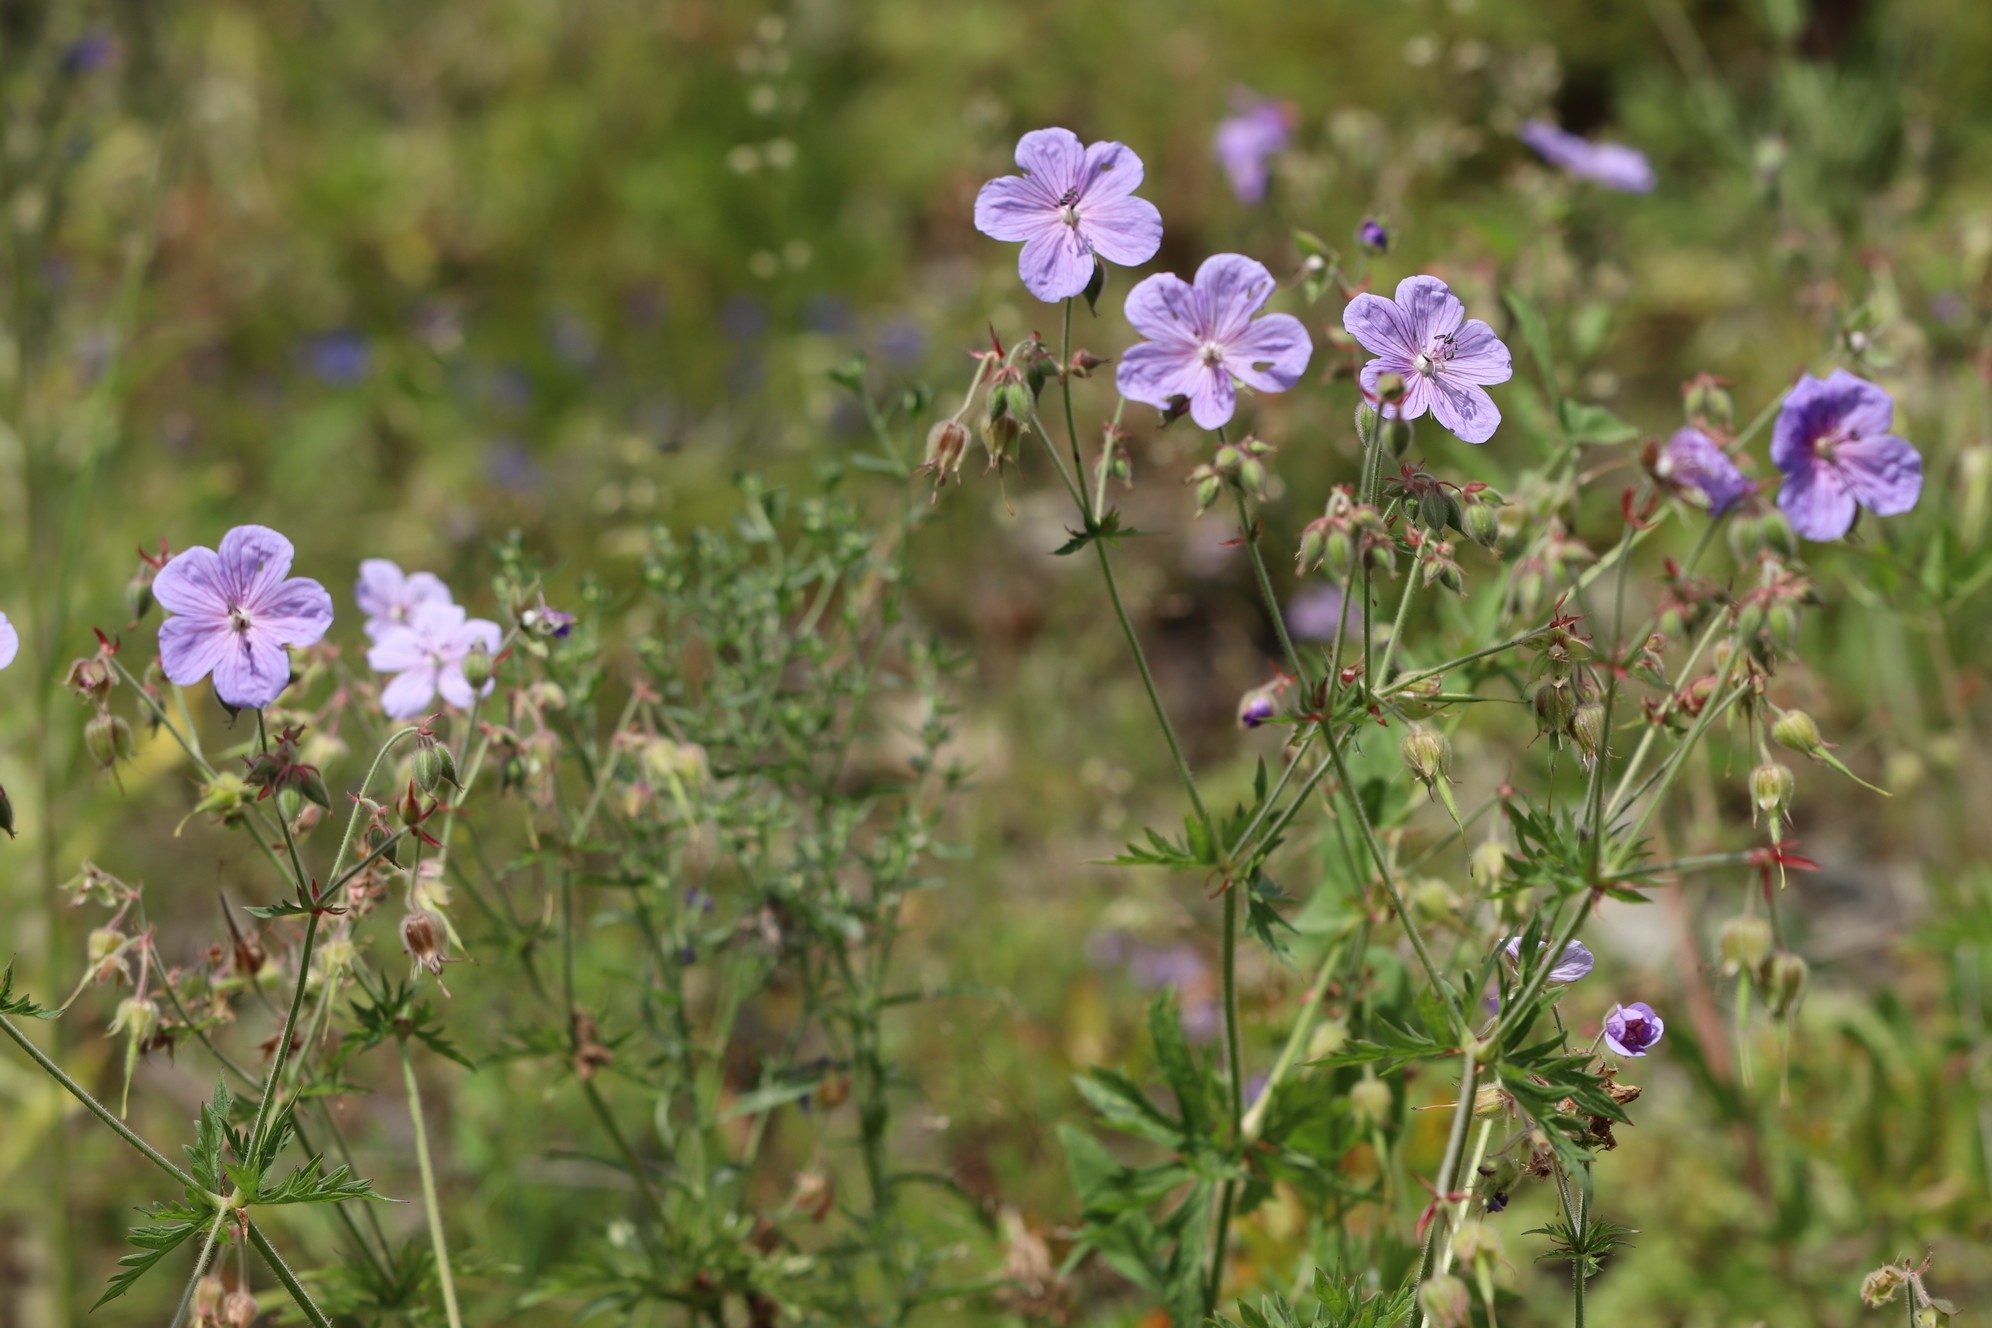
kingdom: Plantae
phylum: Tracheophyta
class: Magnoliopsida
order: Geraniales
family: Geraniaceae
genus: Geranium
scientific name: Geranium pratense
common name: Meadow crane's-bill
